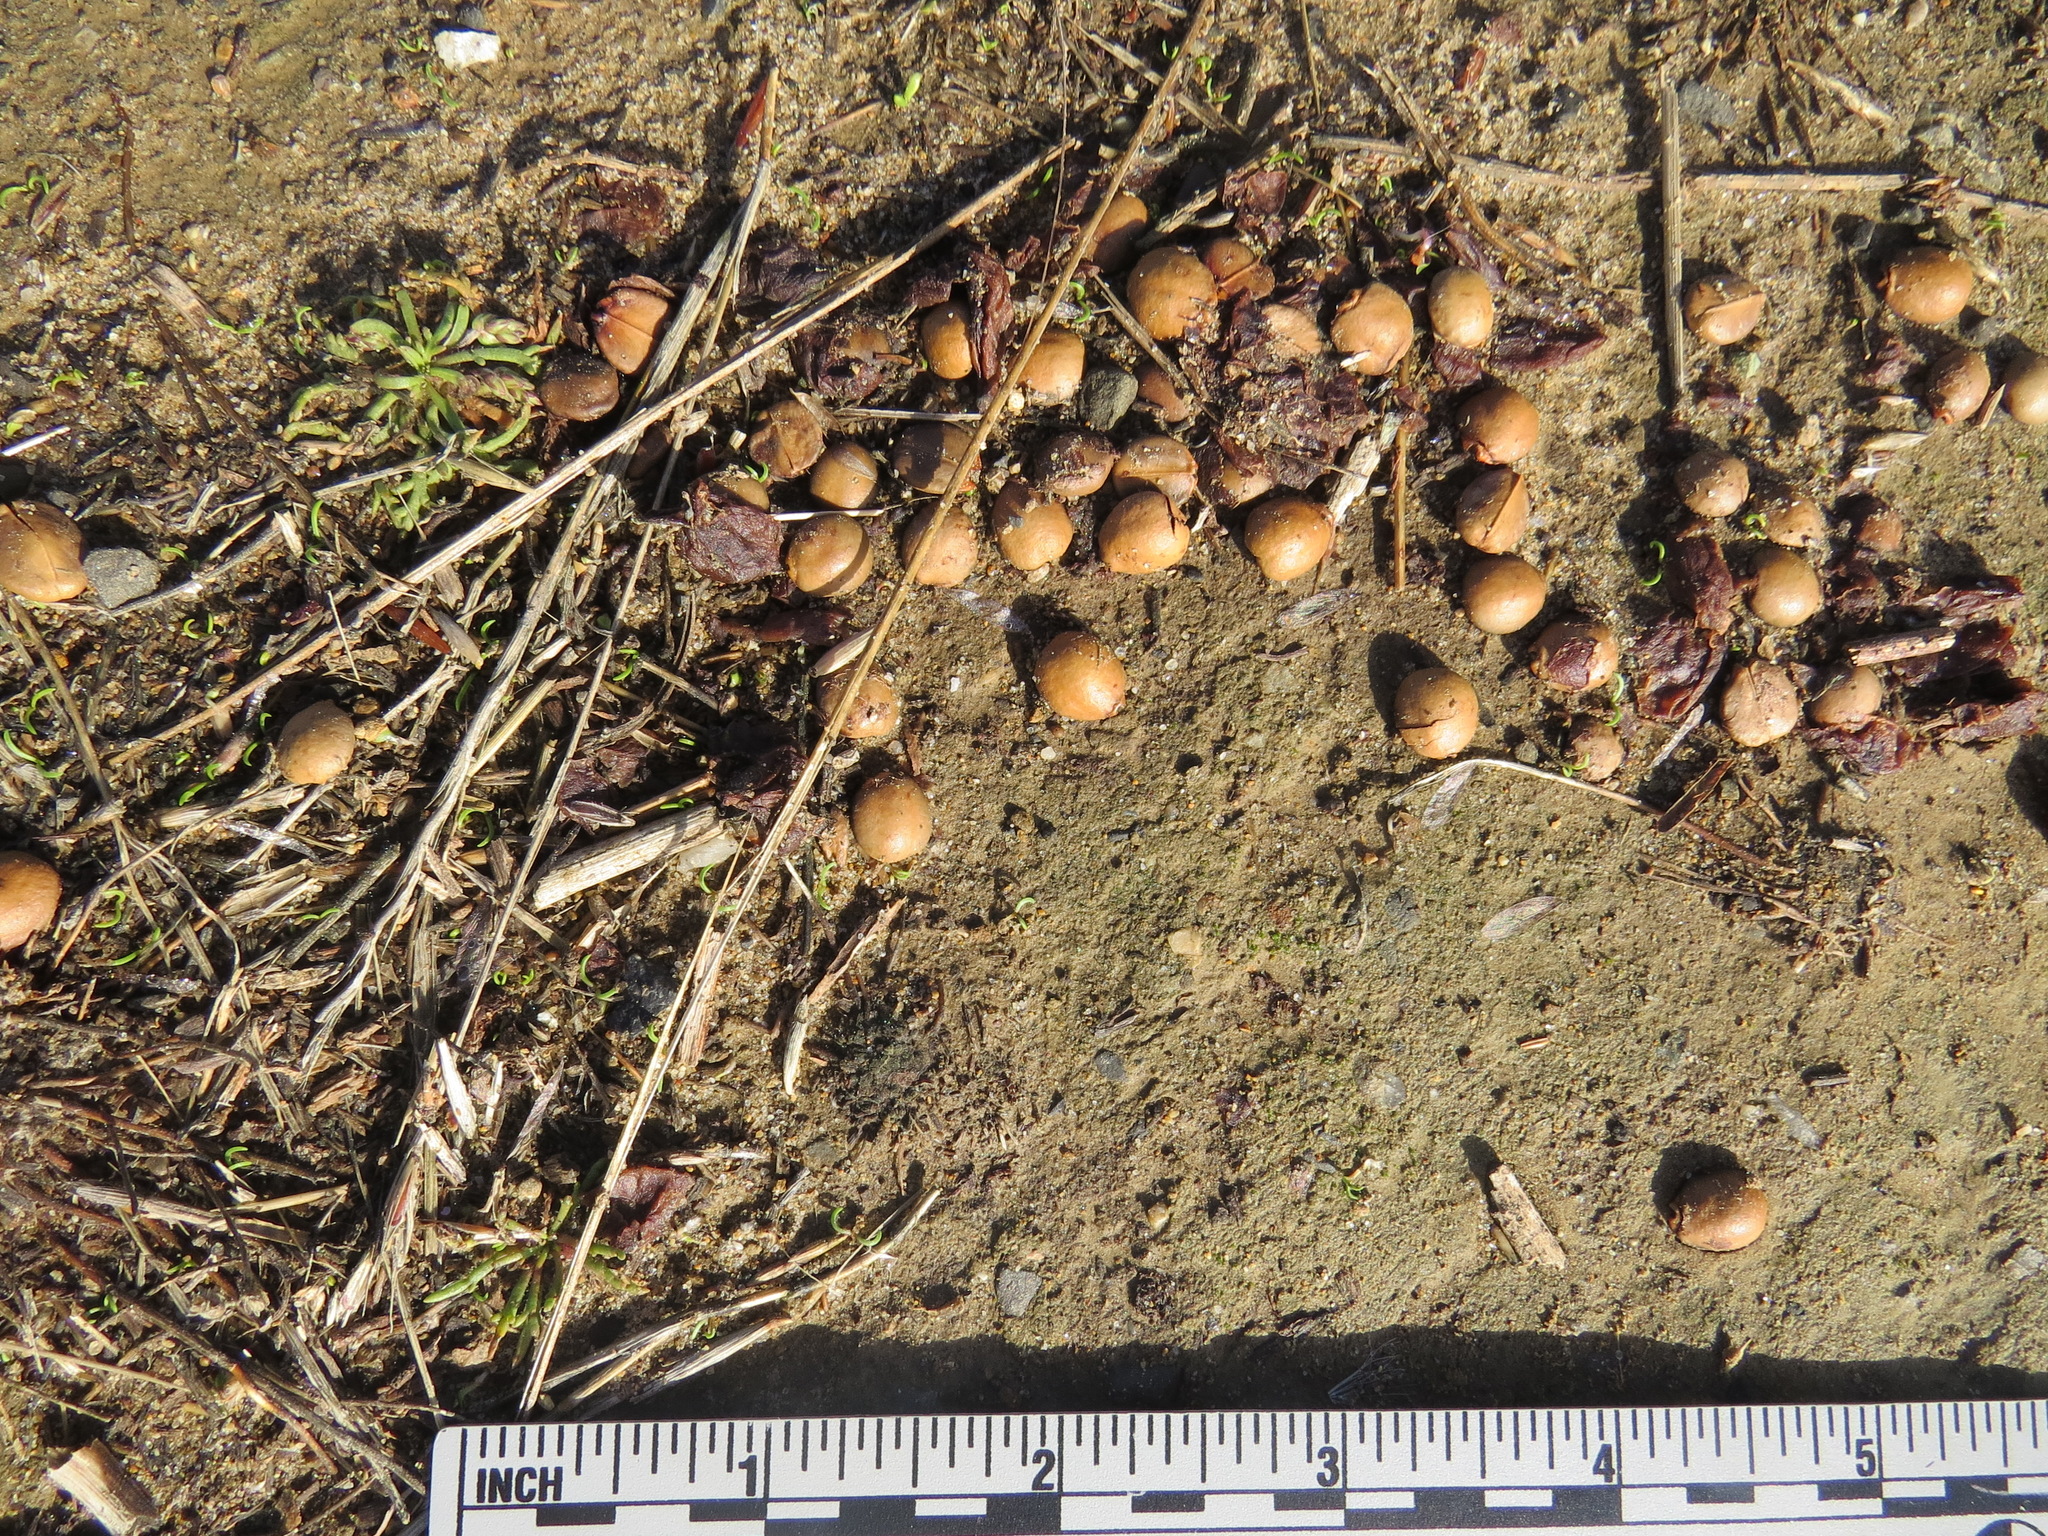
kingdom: Animalia
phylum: Chordata
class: Mammalia
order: Carnivora
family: Canidae
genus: Urocyon
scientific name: Urocyon cinereoargenteus
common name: Gray fox
